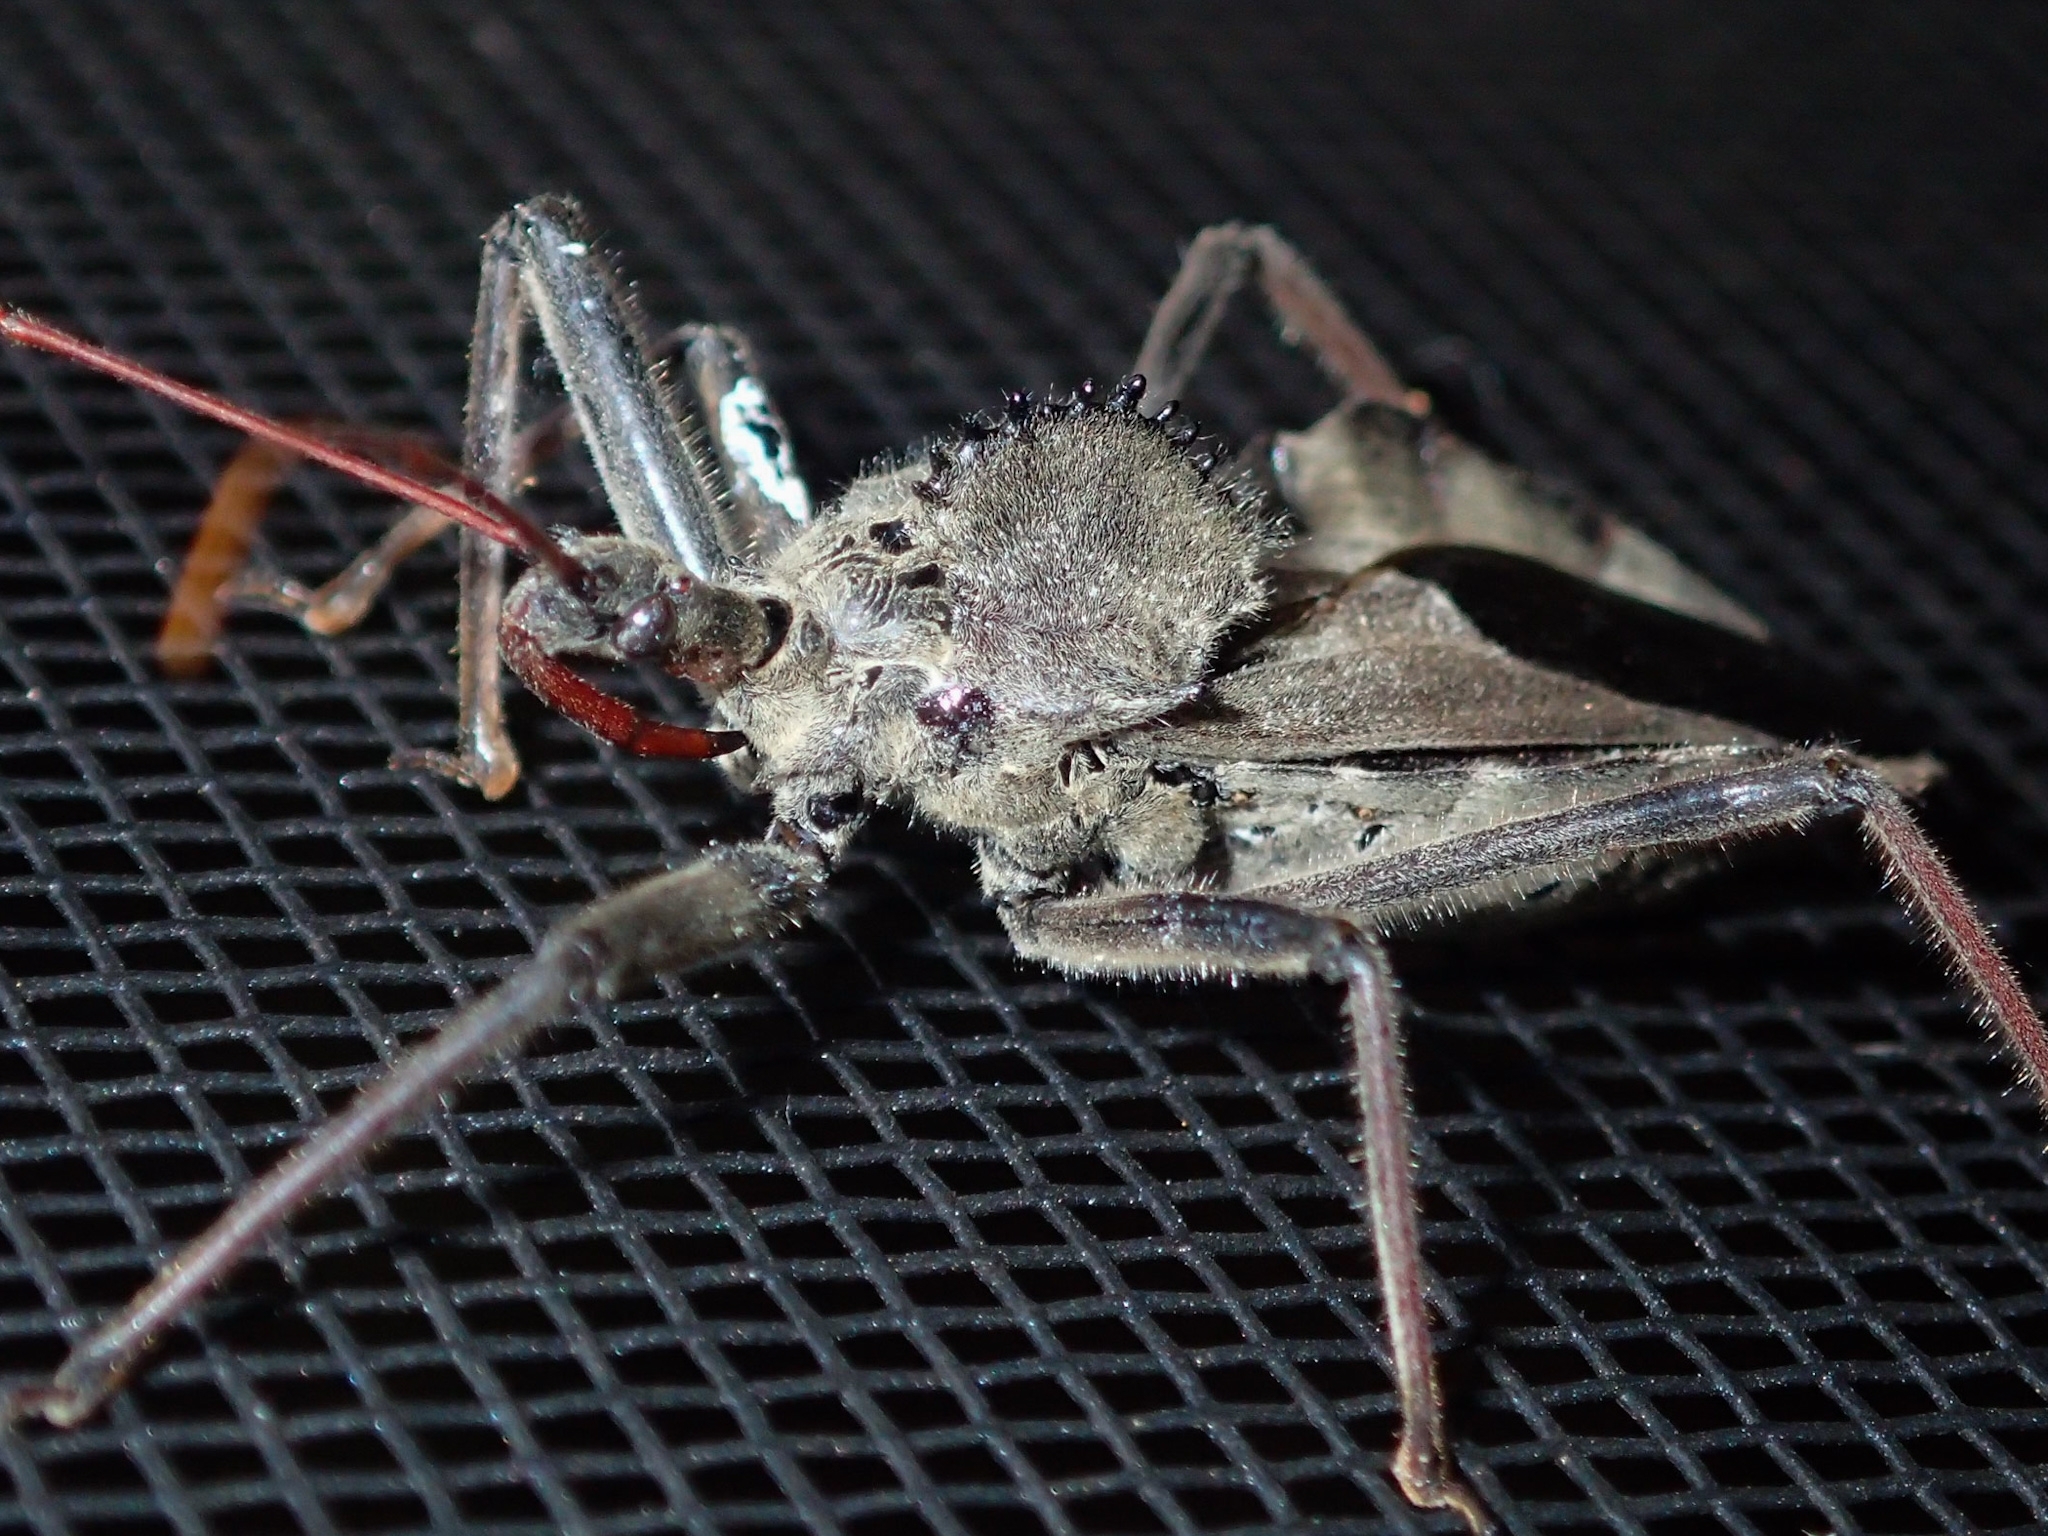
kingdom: Animalia
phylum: Arthropoda
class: Insecta
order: Hemiptera
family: Reduviidae
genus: Arilus
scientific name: Arilus cristatus
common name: North american wheel bug
